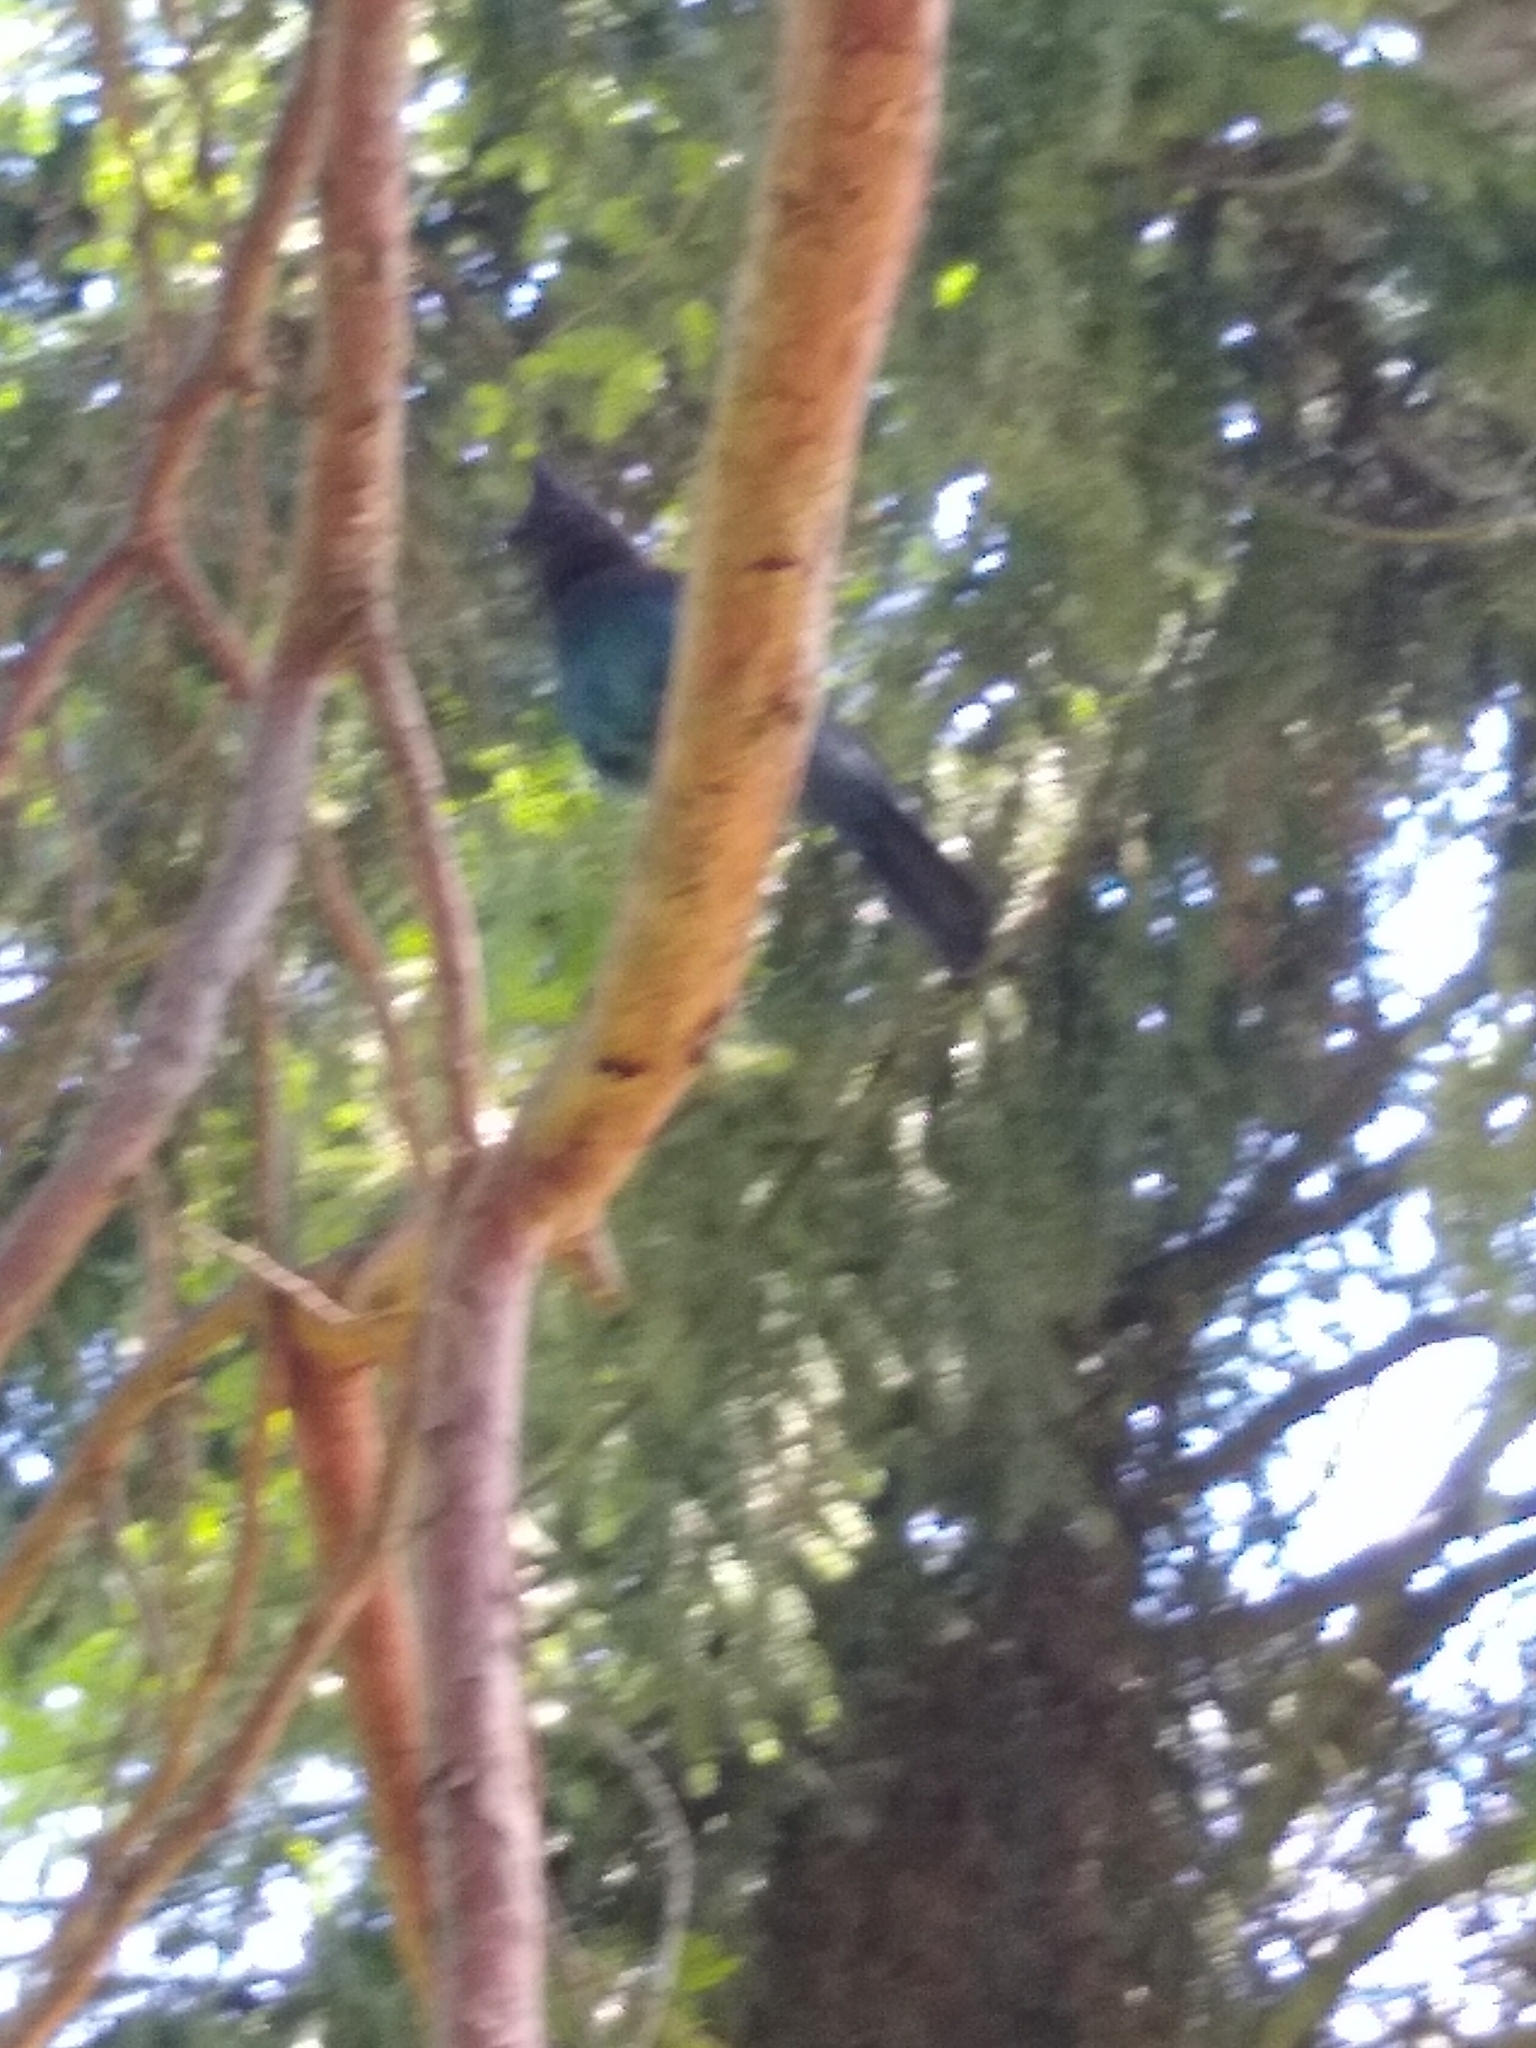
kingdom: Animalia
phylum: Chordata
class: Aves
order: Passeriformes
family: Corvidae
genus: Cyanocitta
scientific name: Cyanocitta stelleri
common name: Steller's jay
